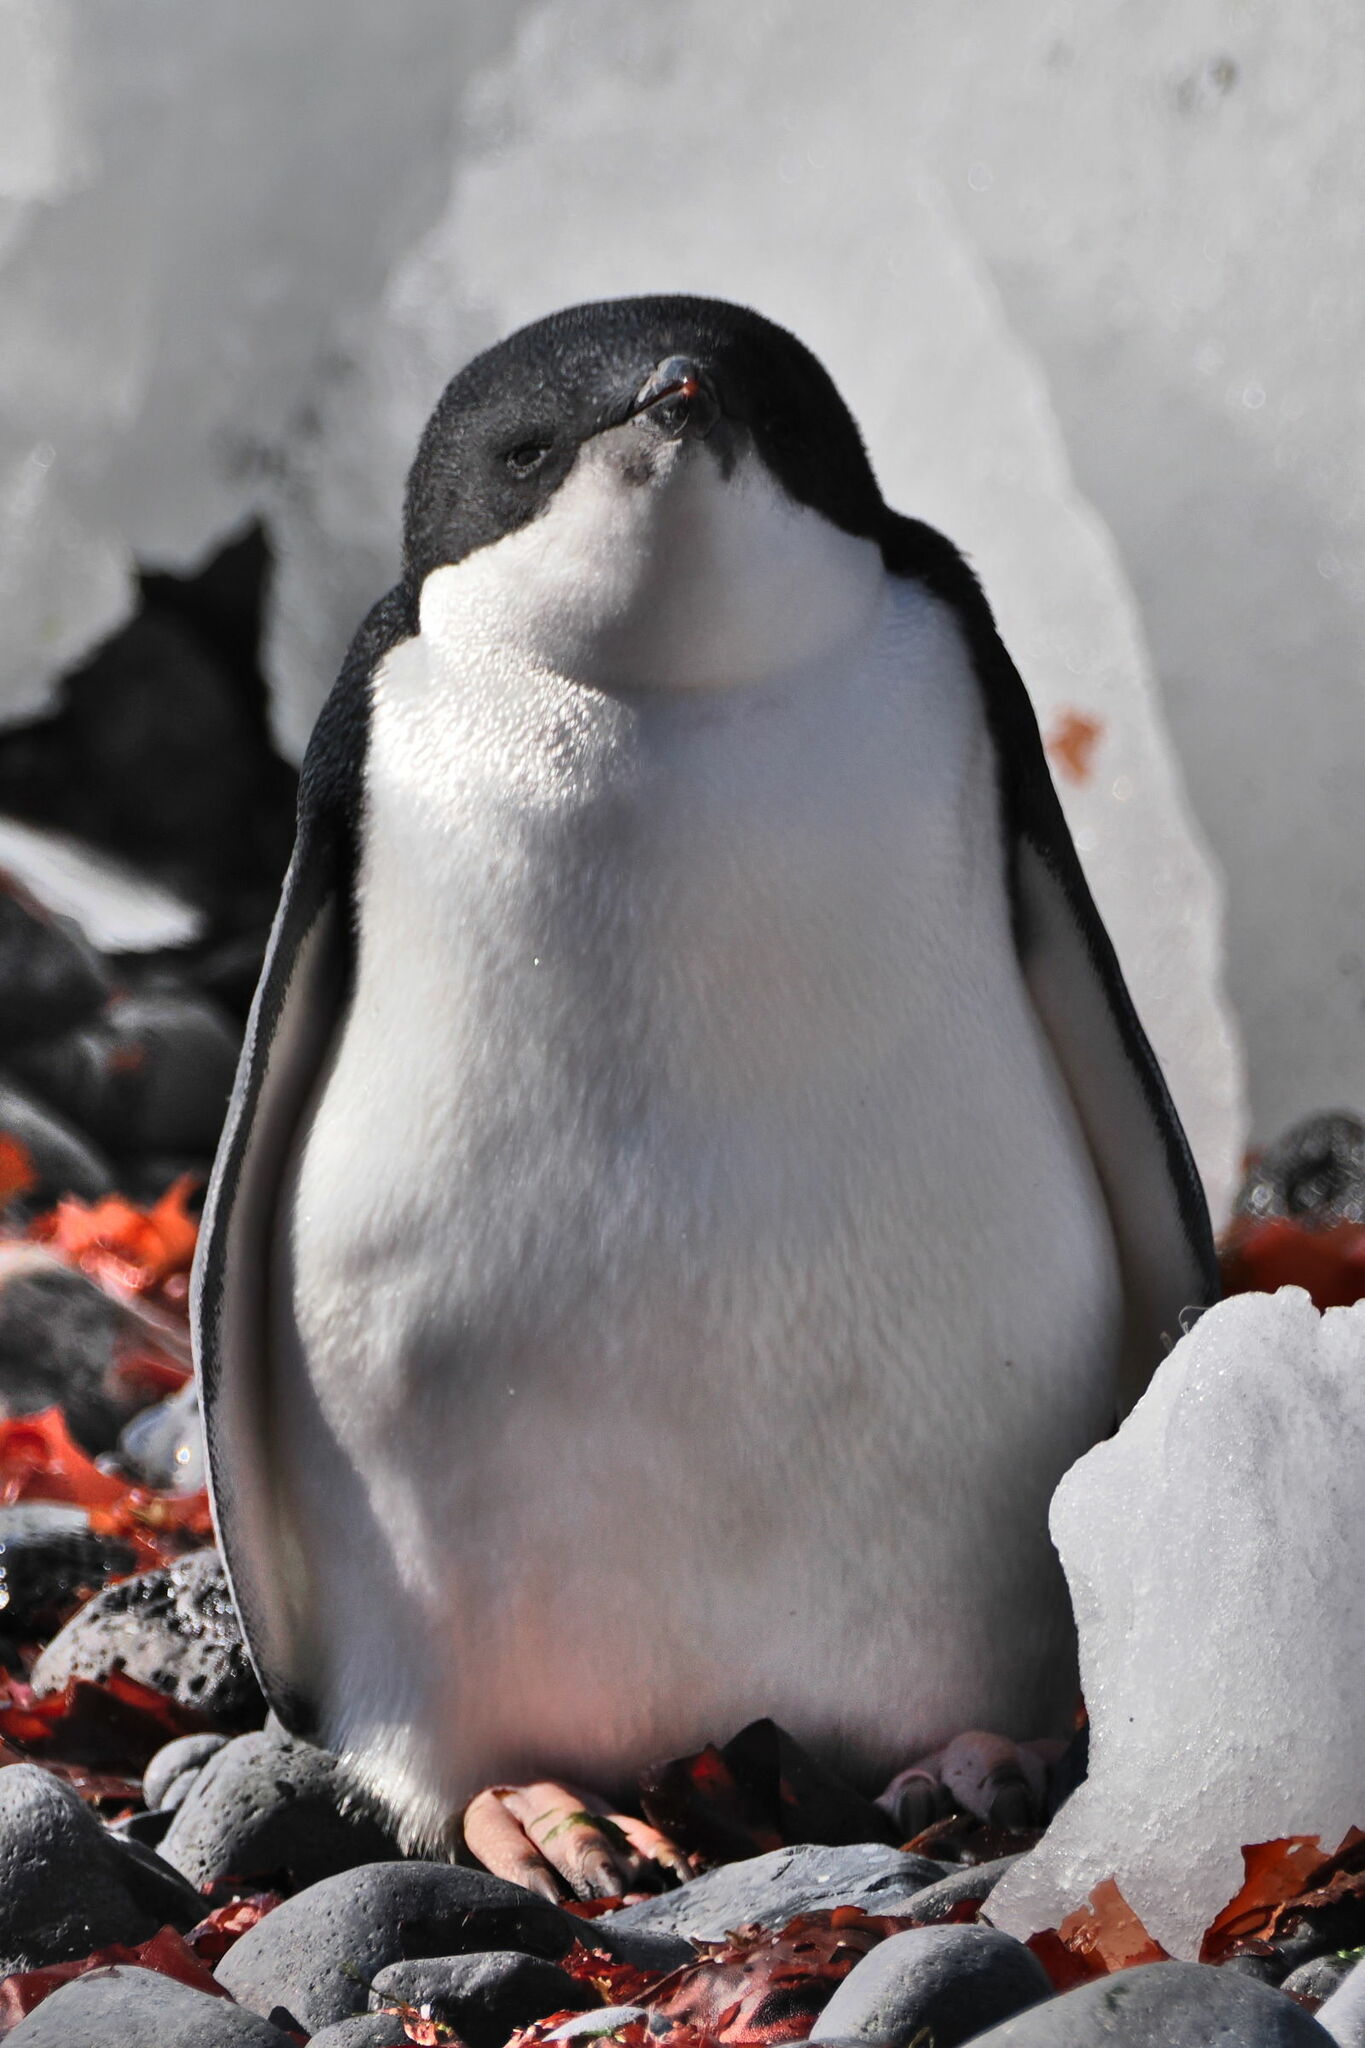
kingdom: Animalia
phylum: Chordata
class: Aves
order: Sphenisciformes
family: Spheniscidae
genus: Pygoscelis
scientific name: Pygoscelis adeliae
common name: Adelie penguin
